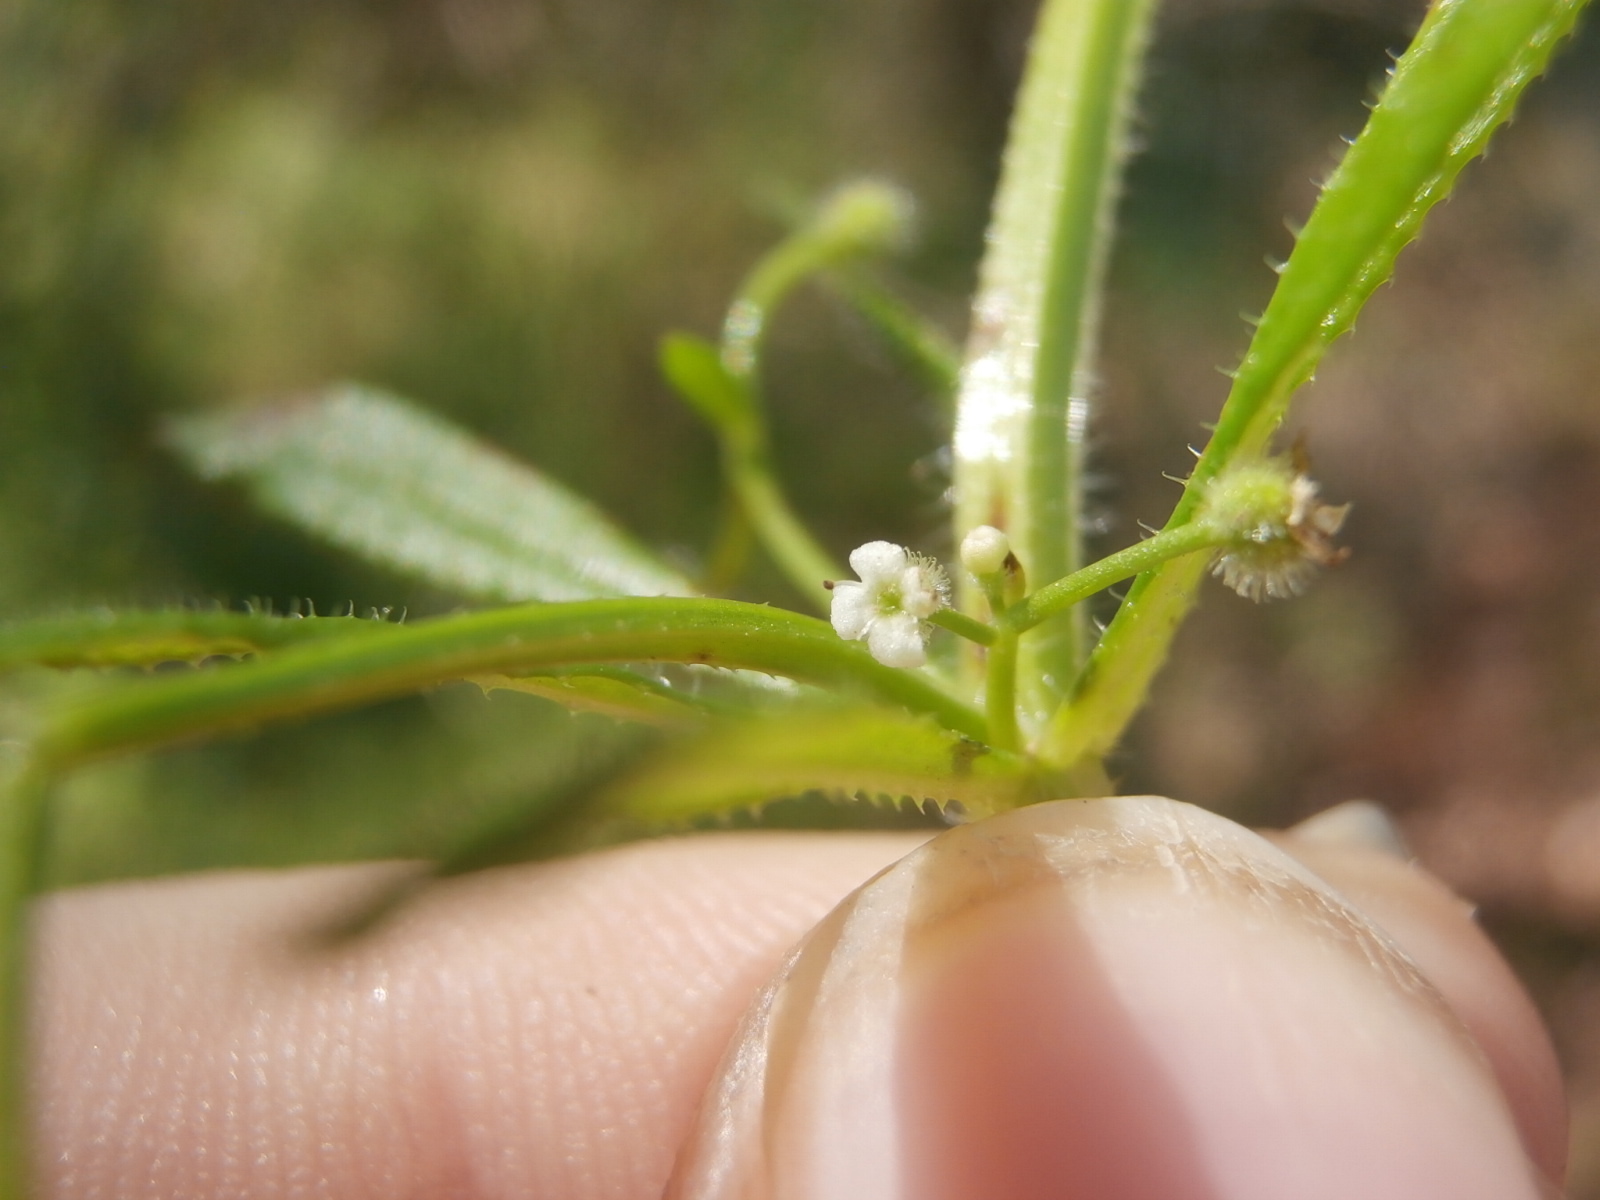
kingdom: Plantae
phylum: Tracheophyta
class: Magnoliopsida
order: Gentianales
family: Rubiaceae
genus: Galium
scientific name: Galium aparine
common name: Cleavers
